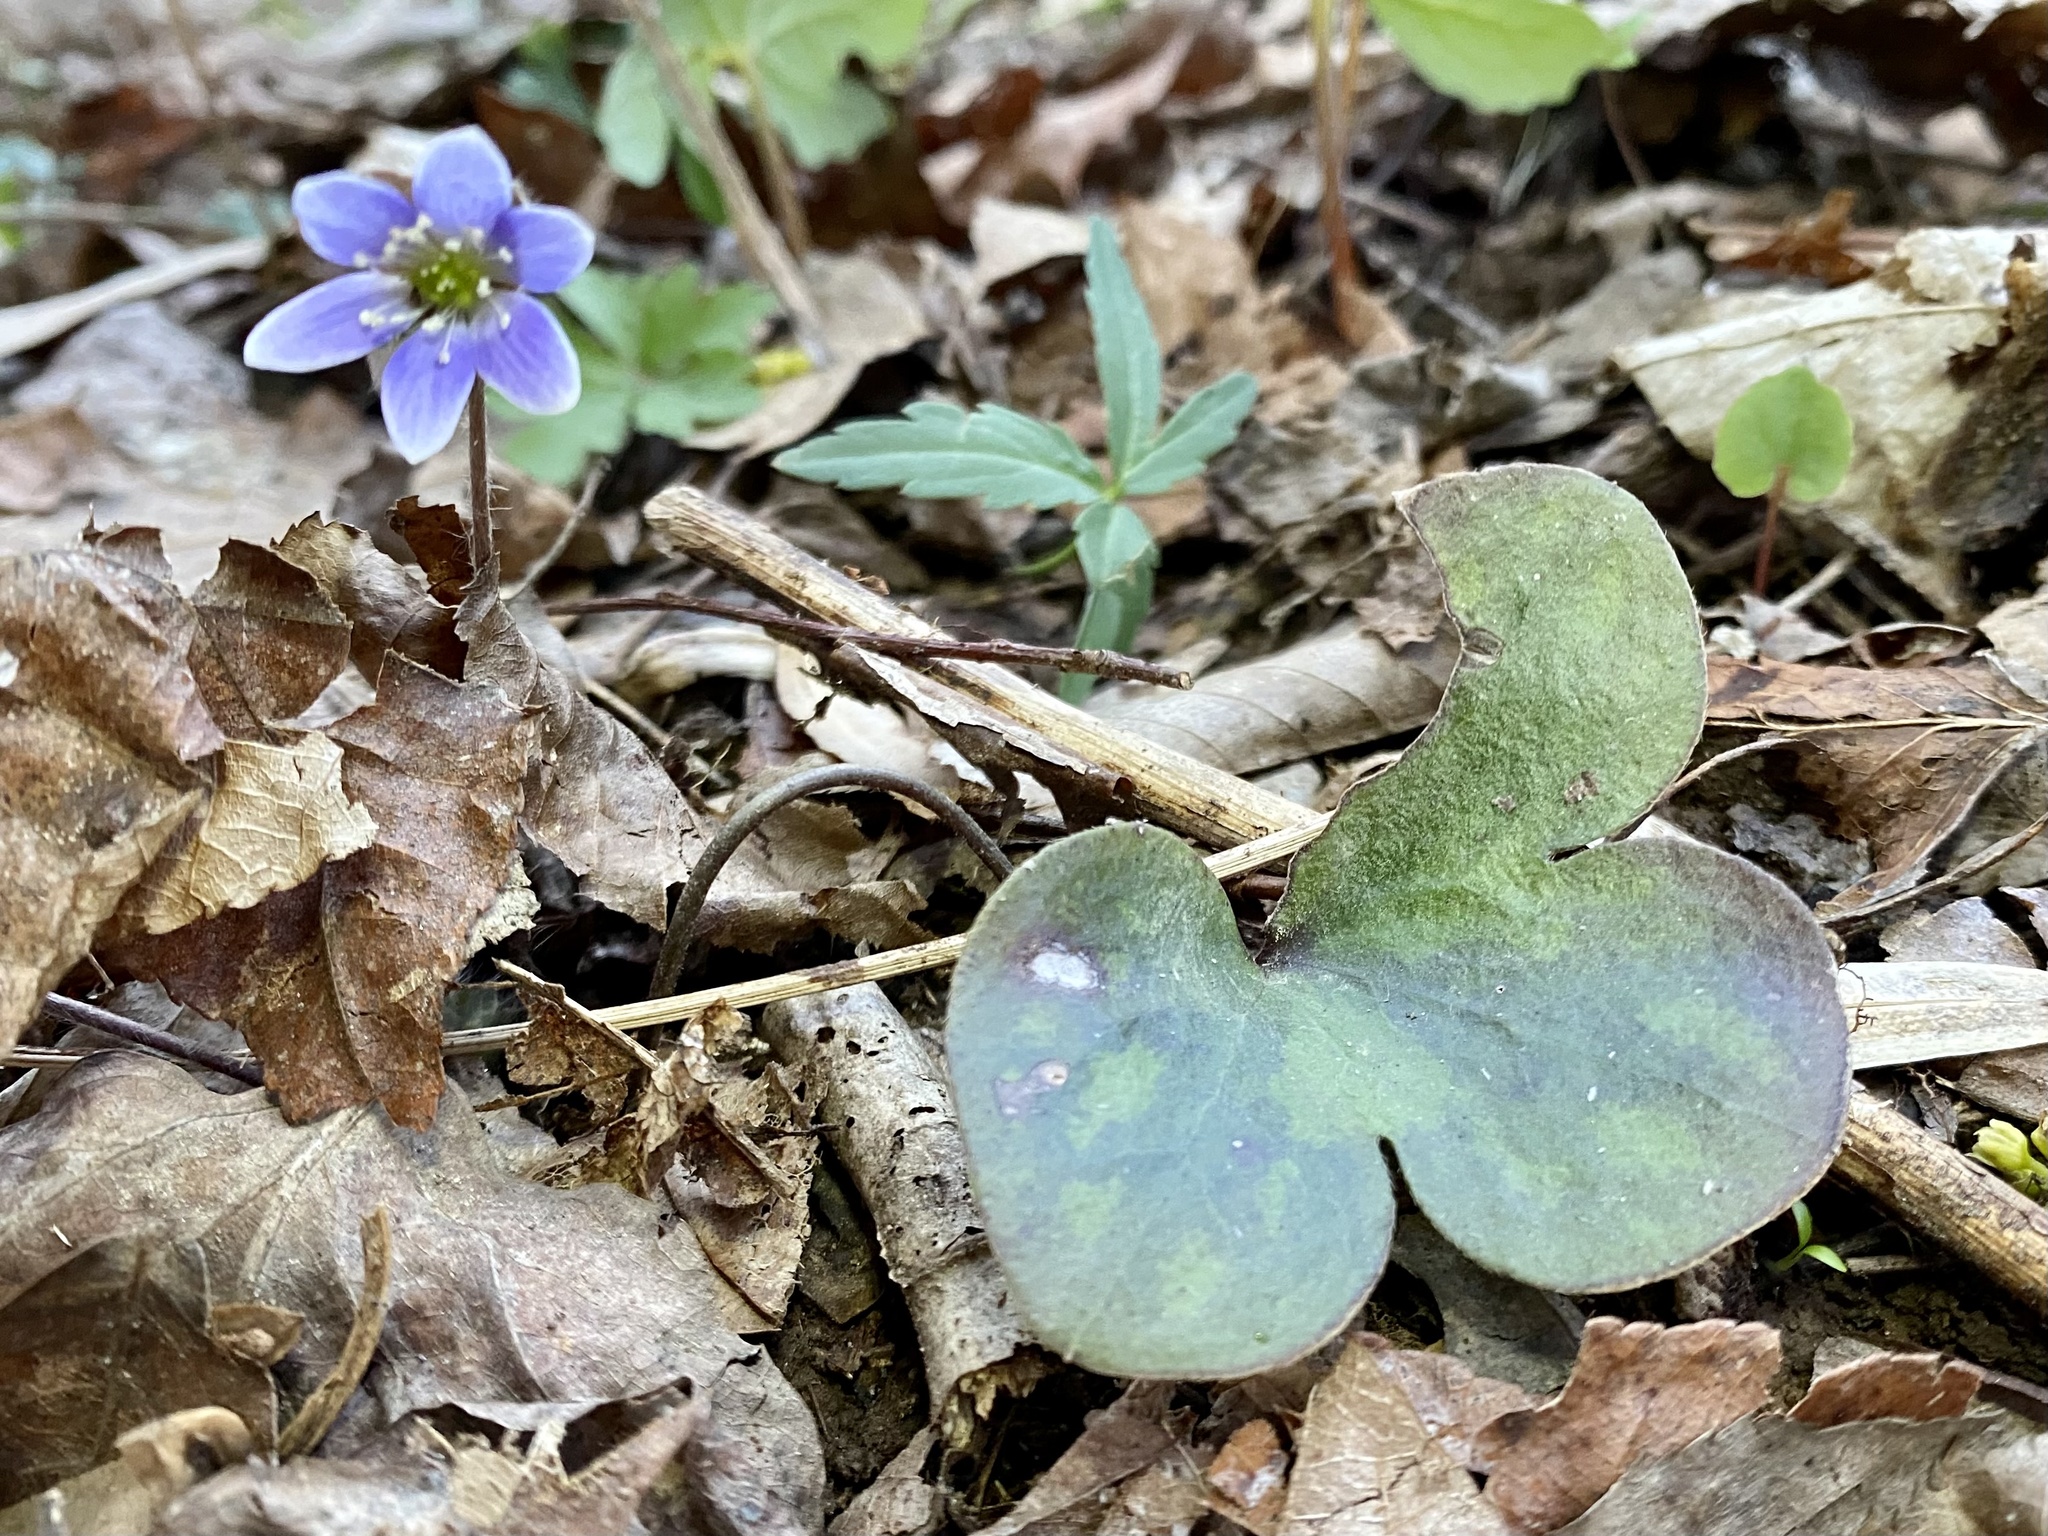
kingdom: Plantae
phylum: Tracheophyta
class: Magnoliopsida
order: Ranunculales
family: Ranunculaceae
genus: Hepatica
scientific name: Hepatica americana
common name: American hepatica
